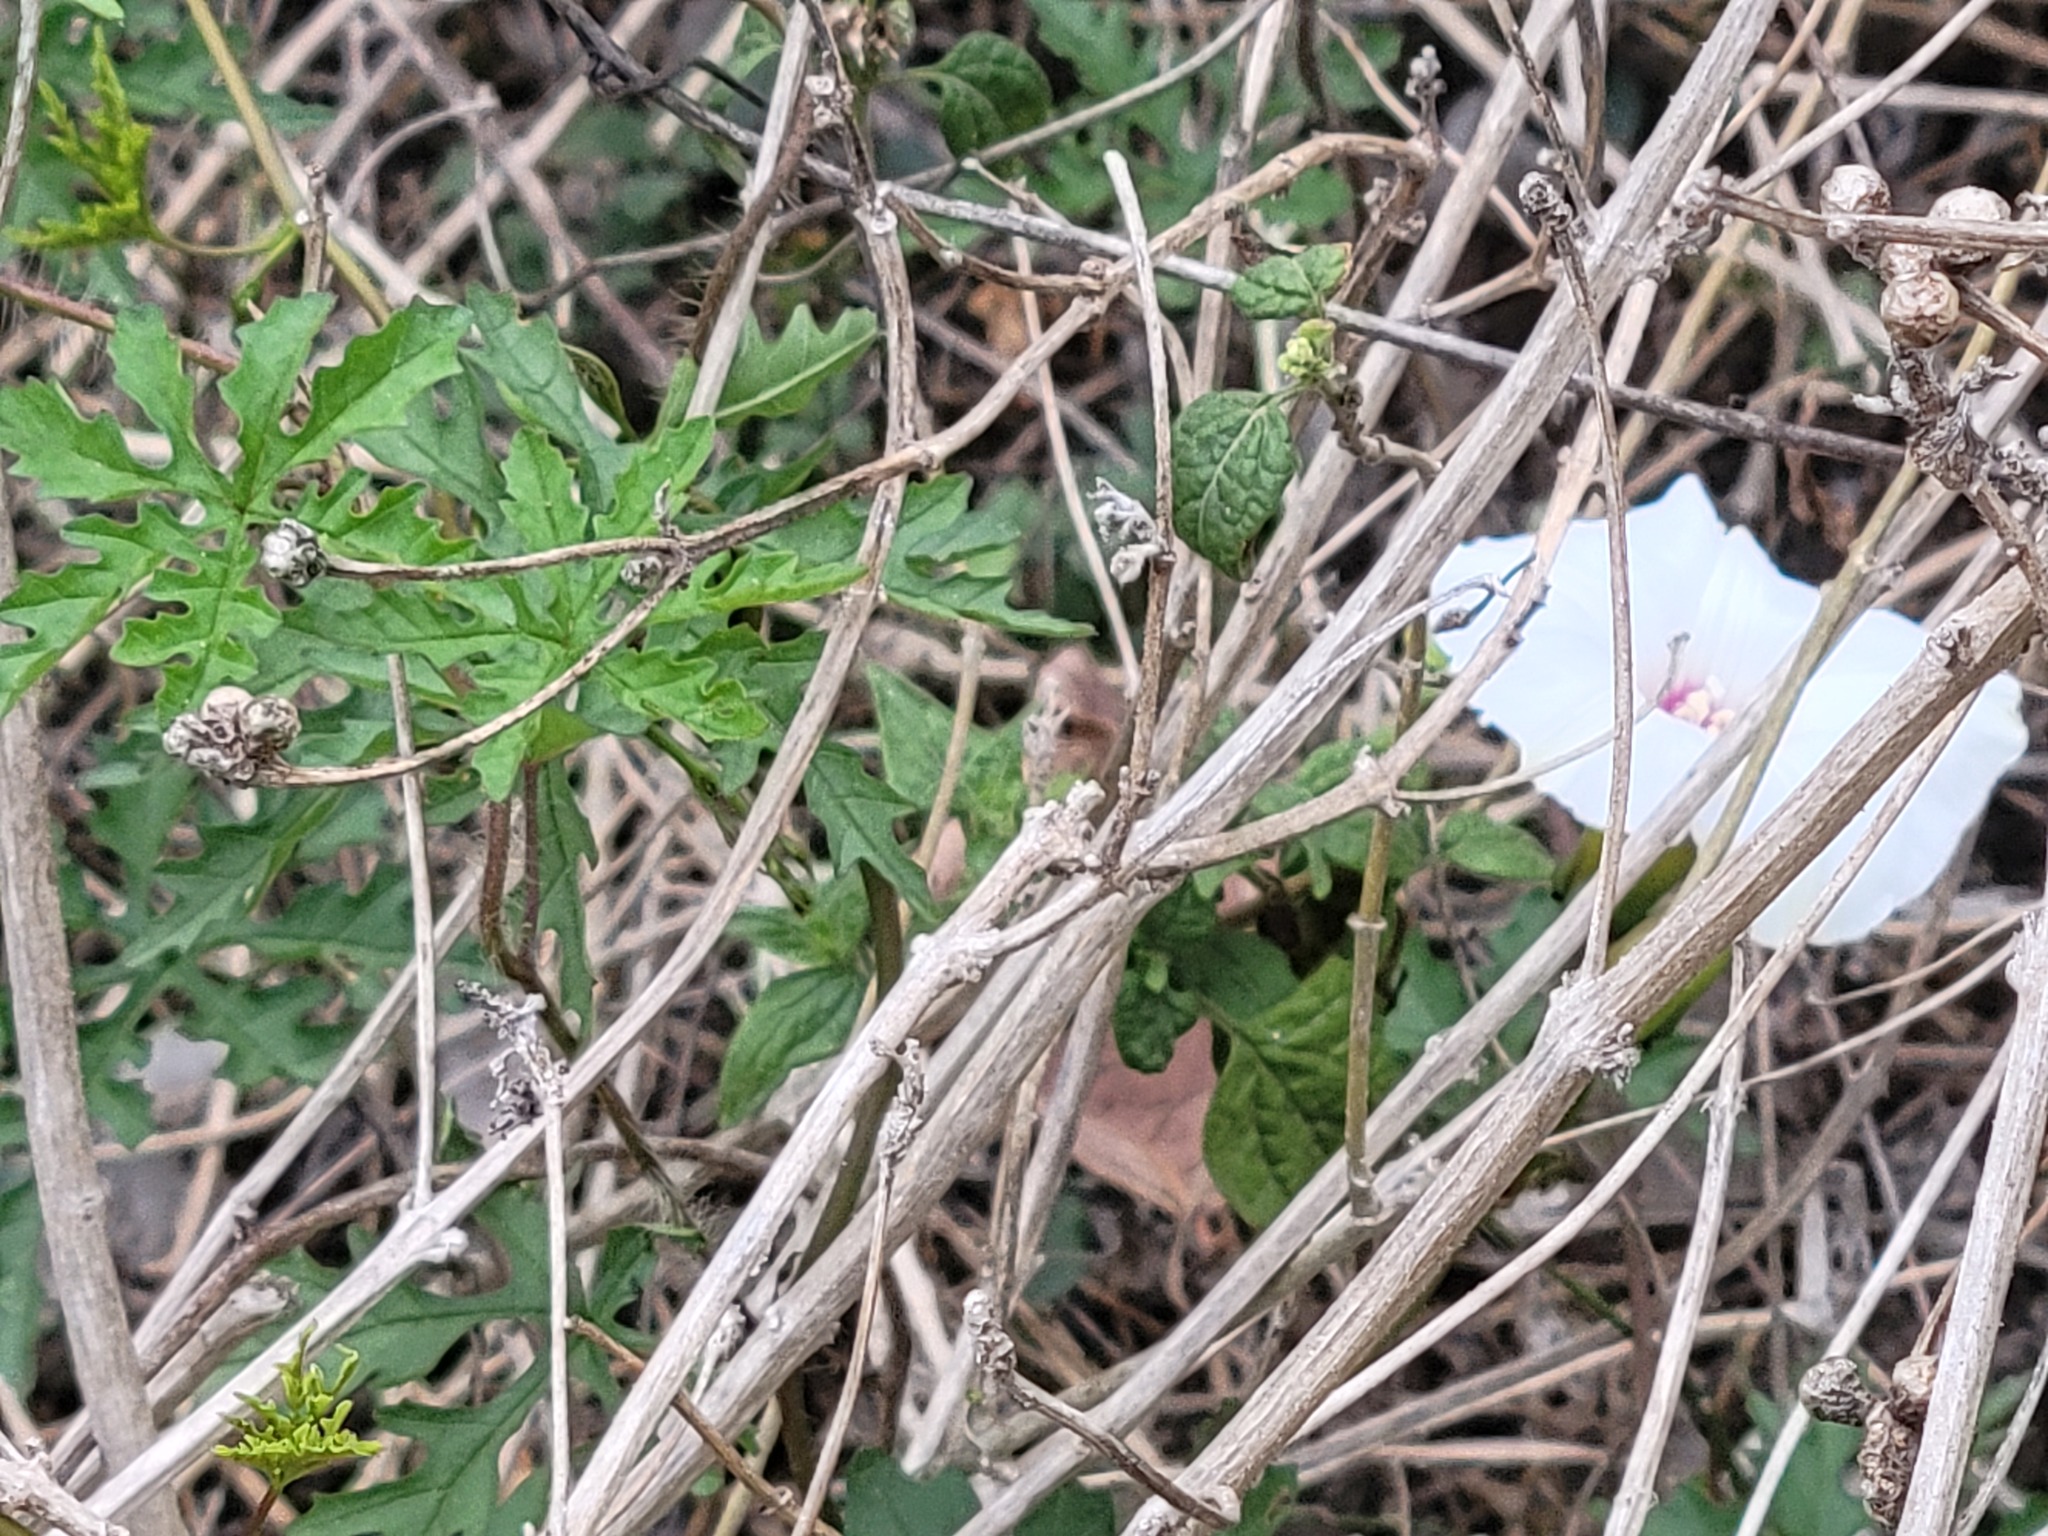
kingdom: Plantae
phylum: Tracheophyta
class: Magnoliopsida
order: Solanales
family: Convolvulaceae
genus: Distimake
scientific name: Distimake dissectus
